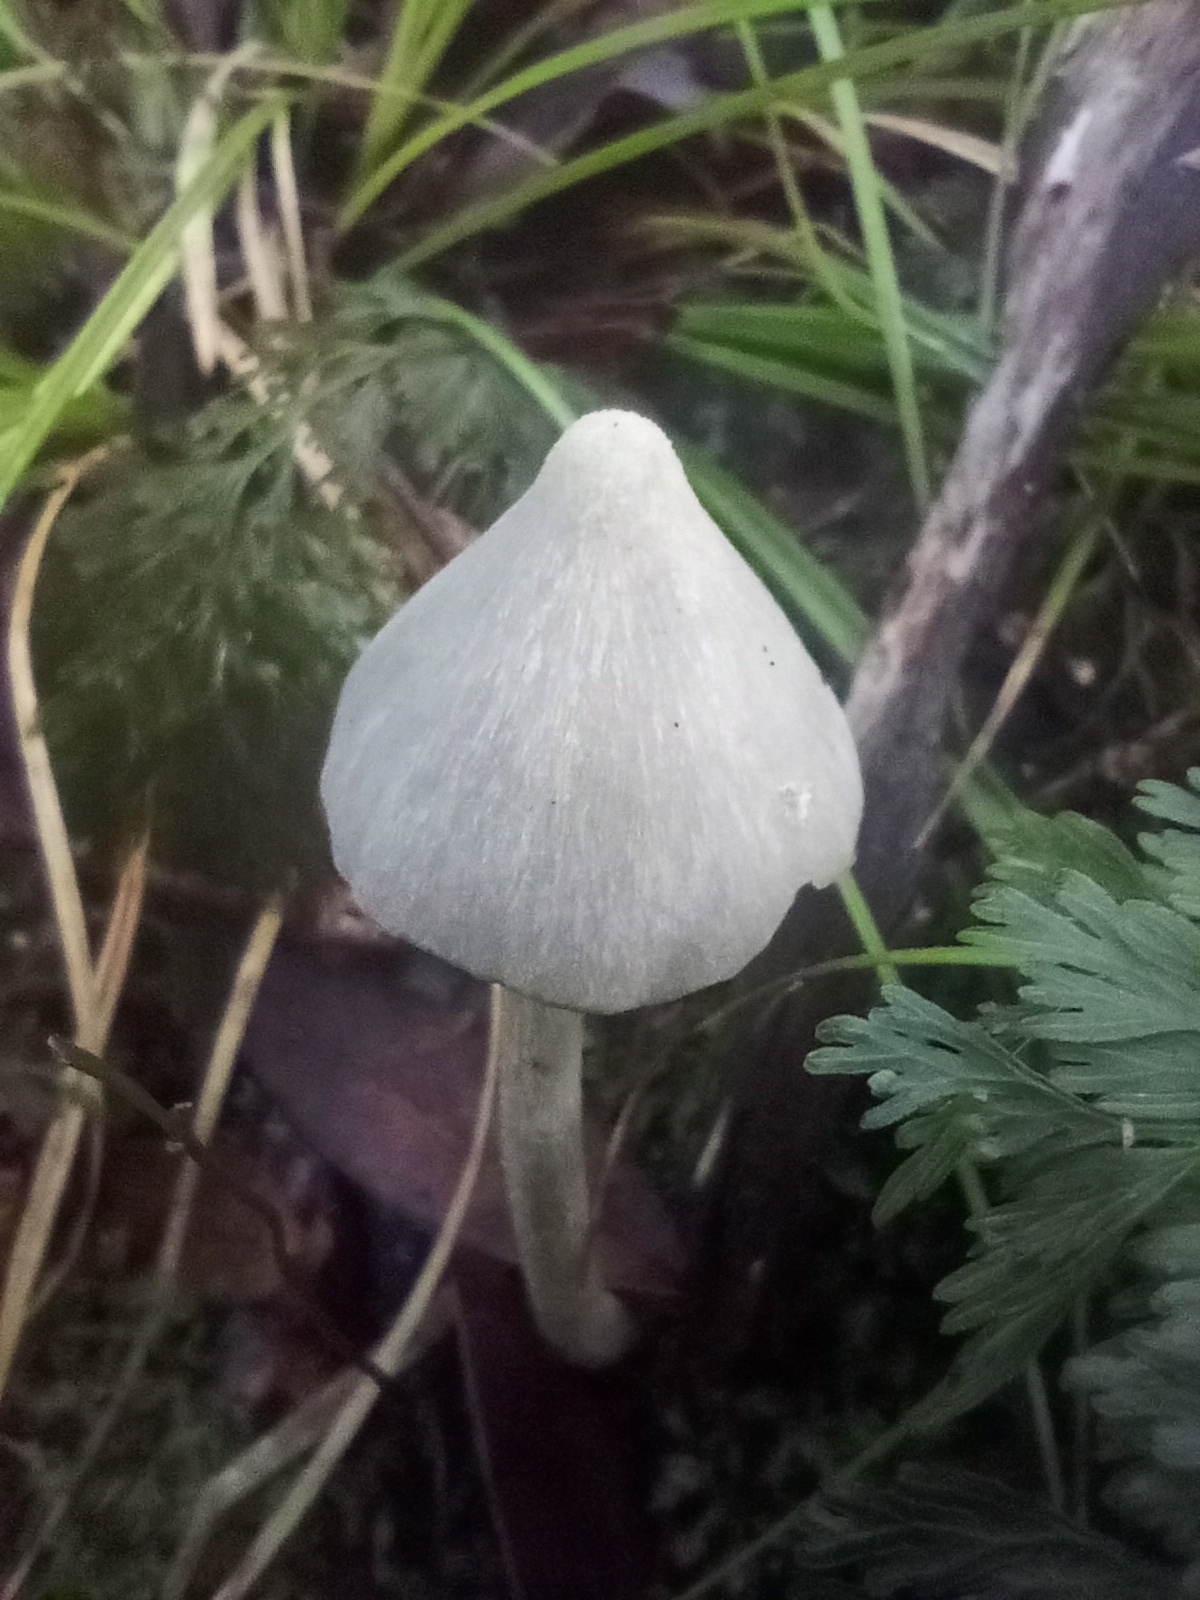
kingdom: Fungi
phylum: Basidiomycota
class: Agaricomycetes
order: Agaricales
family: Entolomataceae
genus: Entoloma
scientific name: Entoloma canoconicum
